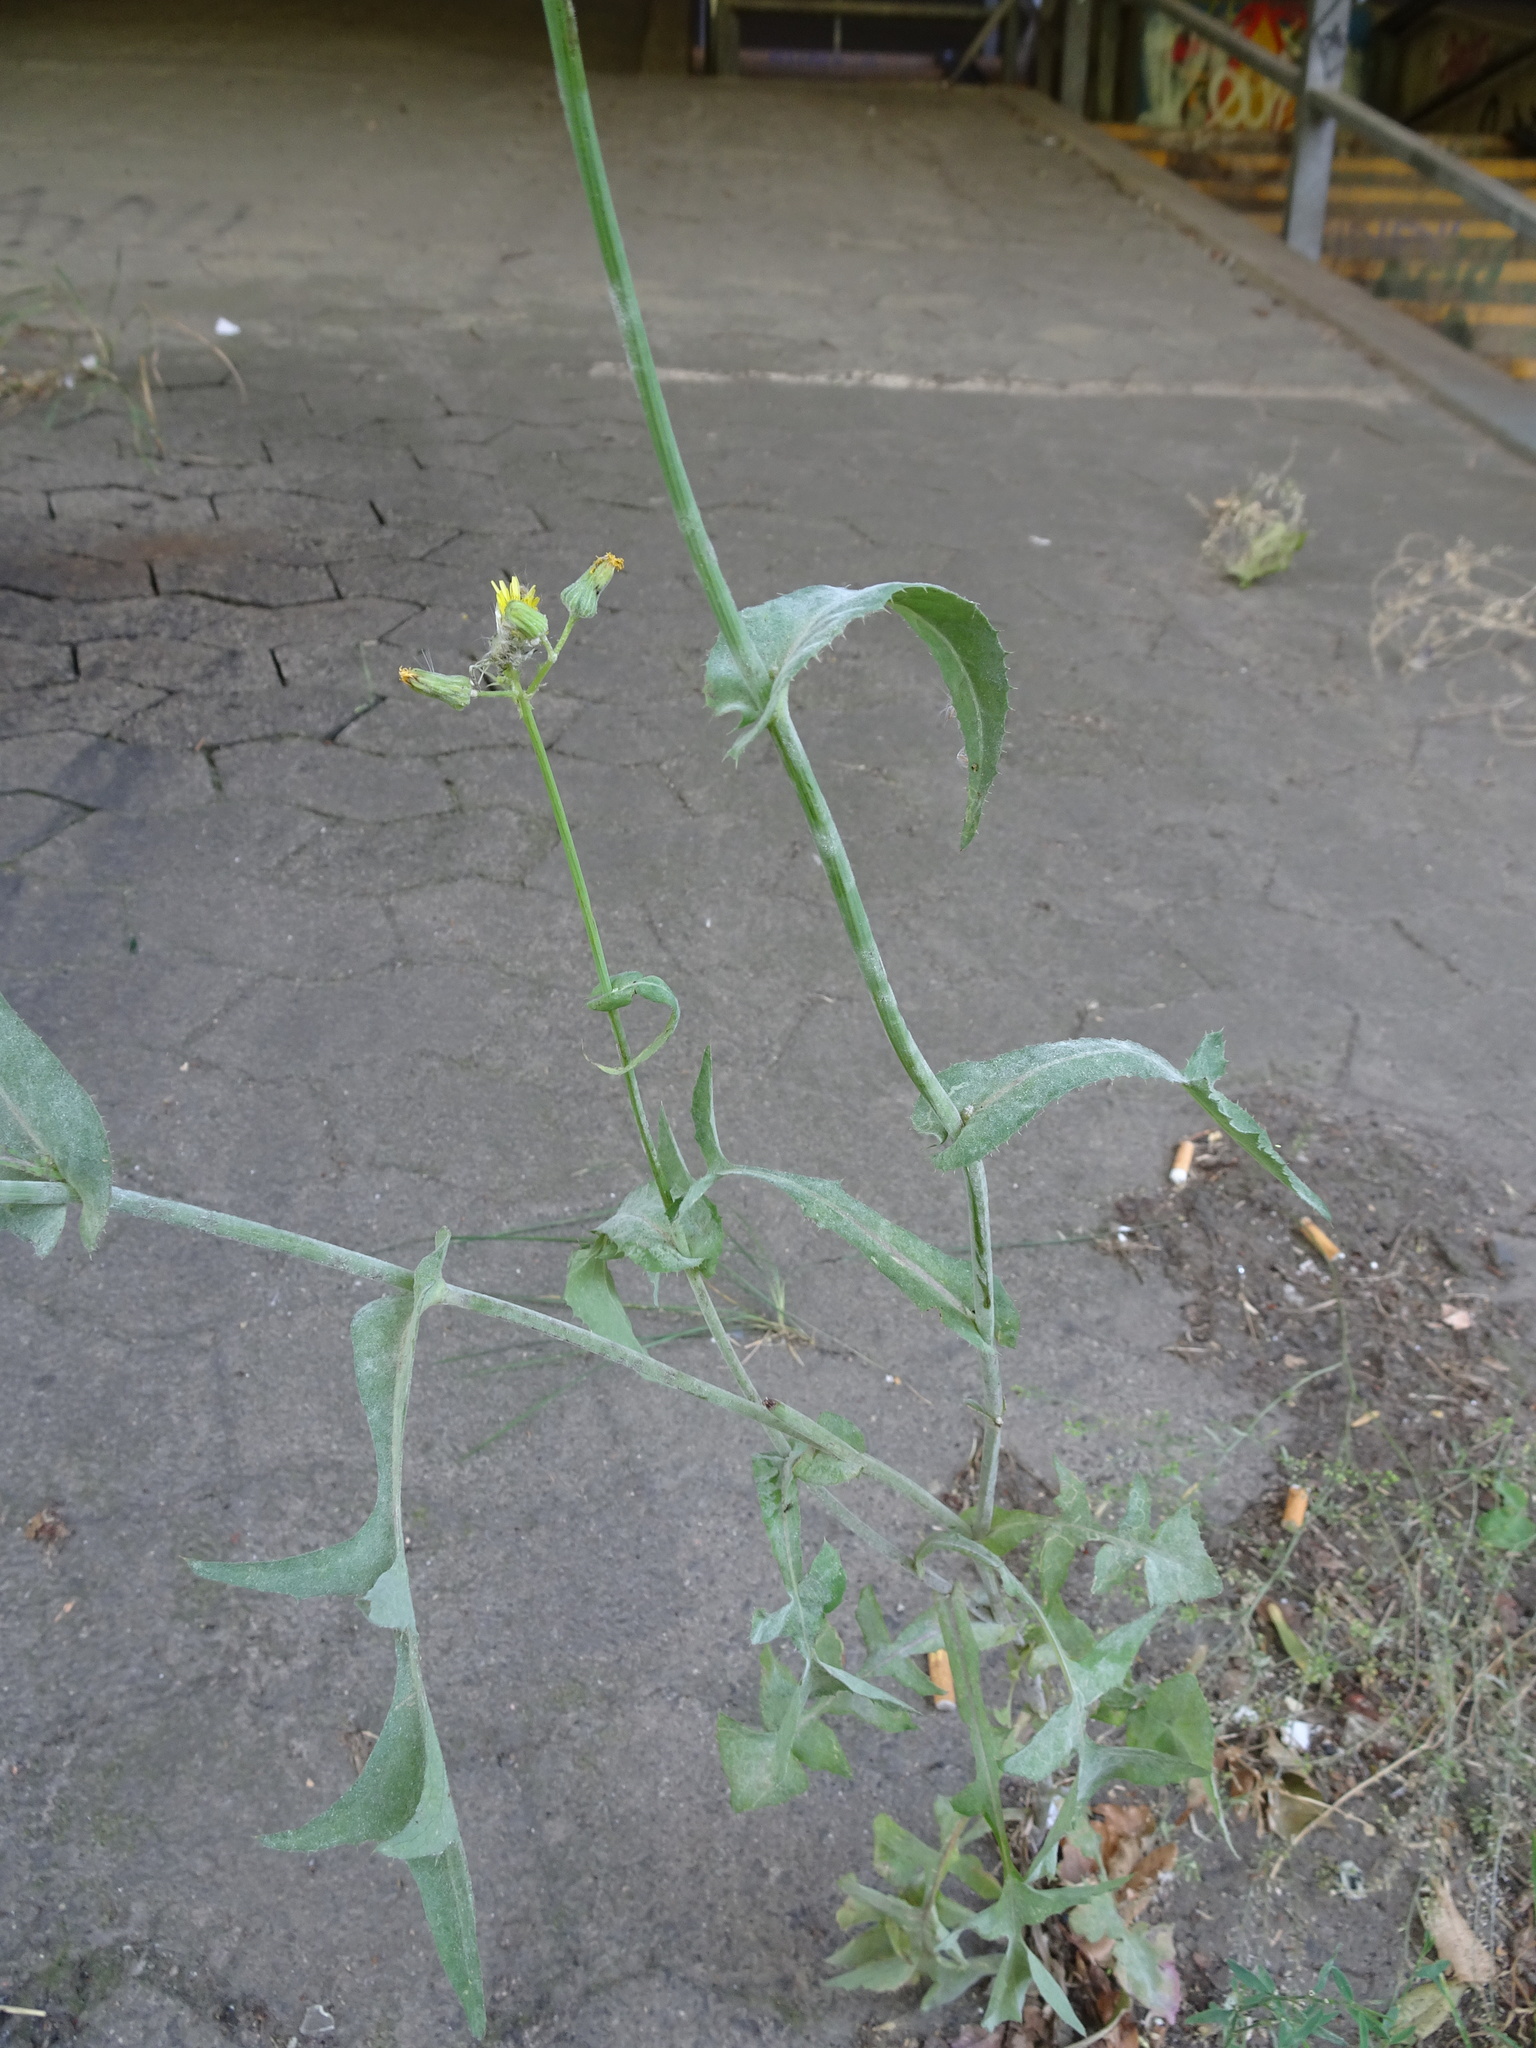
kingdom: Plantae
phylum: Tracheophyta
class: Magnoliopsida
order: Asterales
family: Asteraceae
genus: Sonchus
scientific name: Sonchus oleraceus
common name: Common sowthistle
